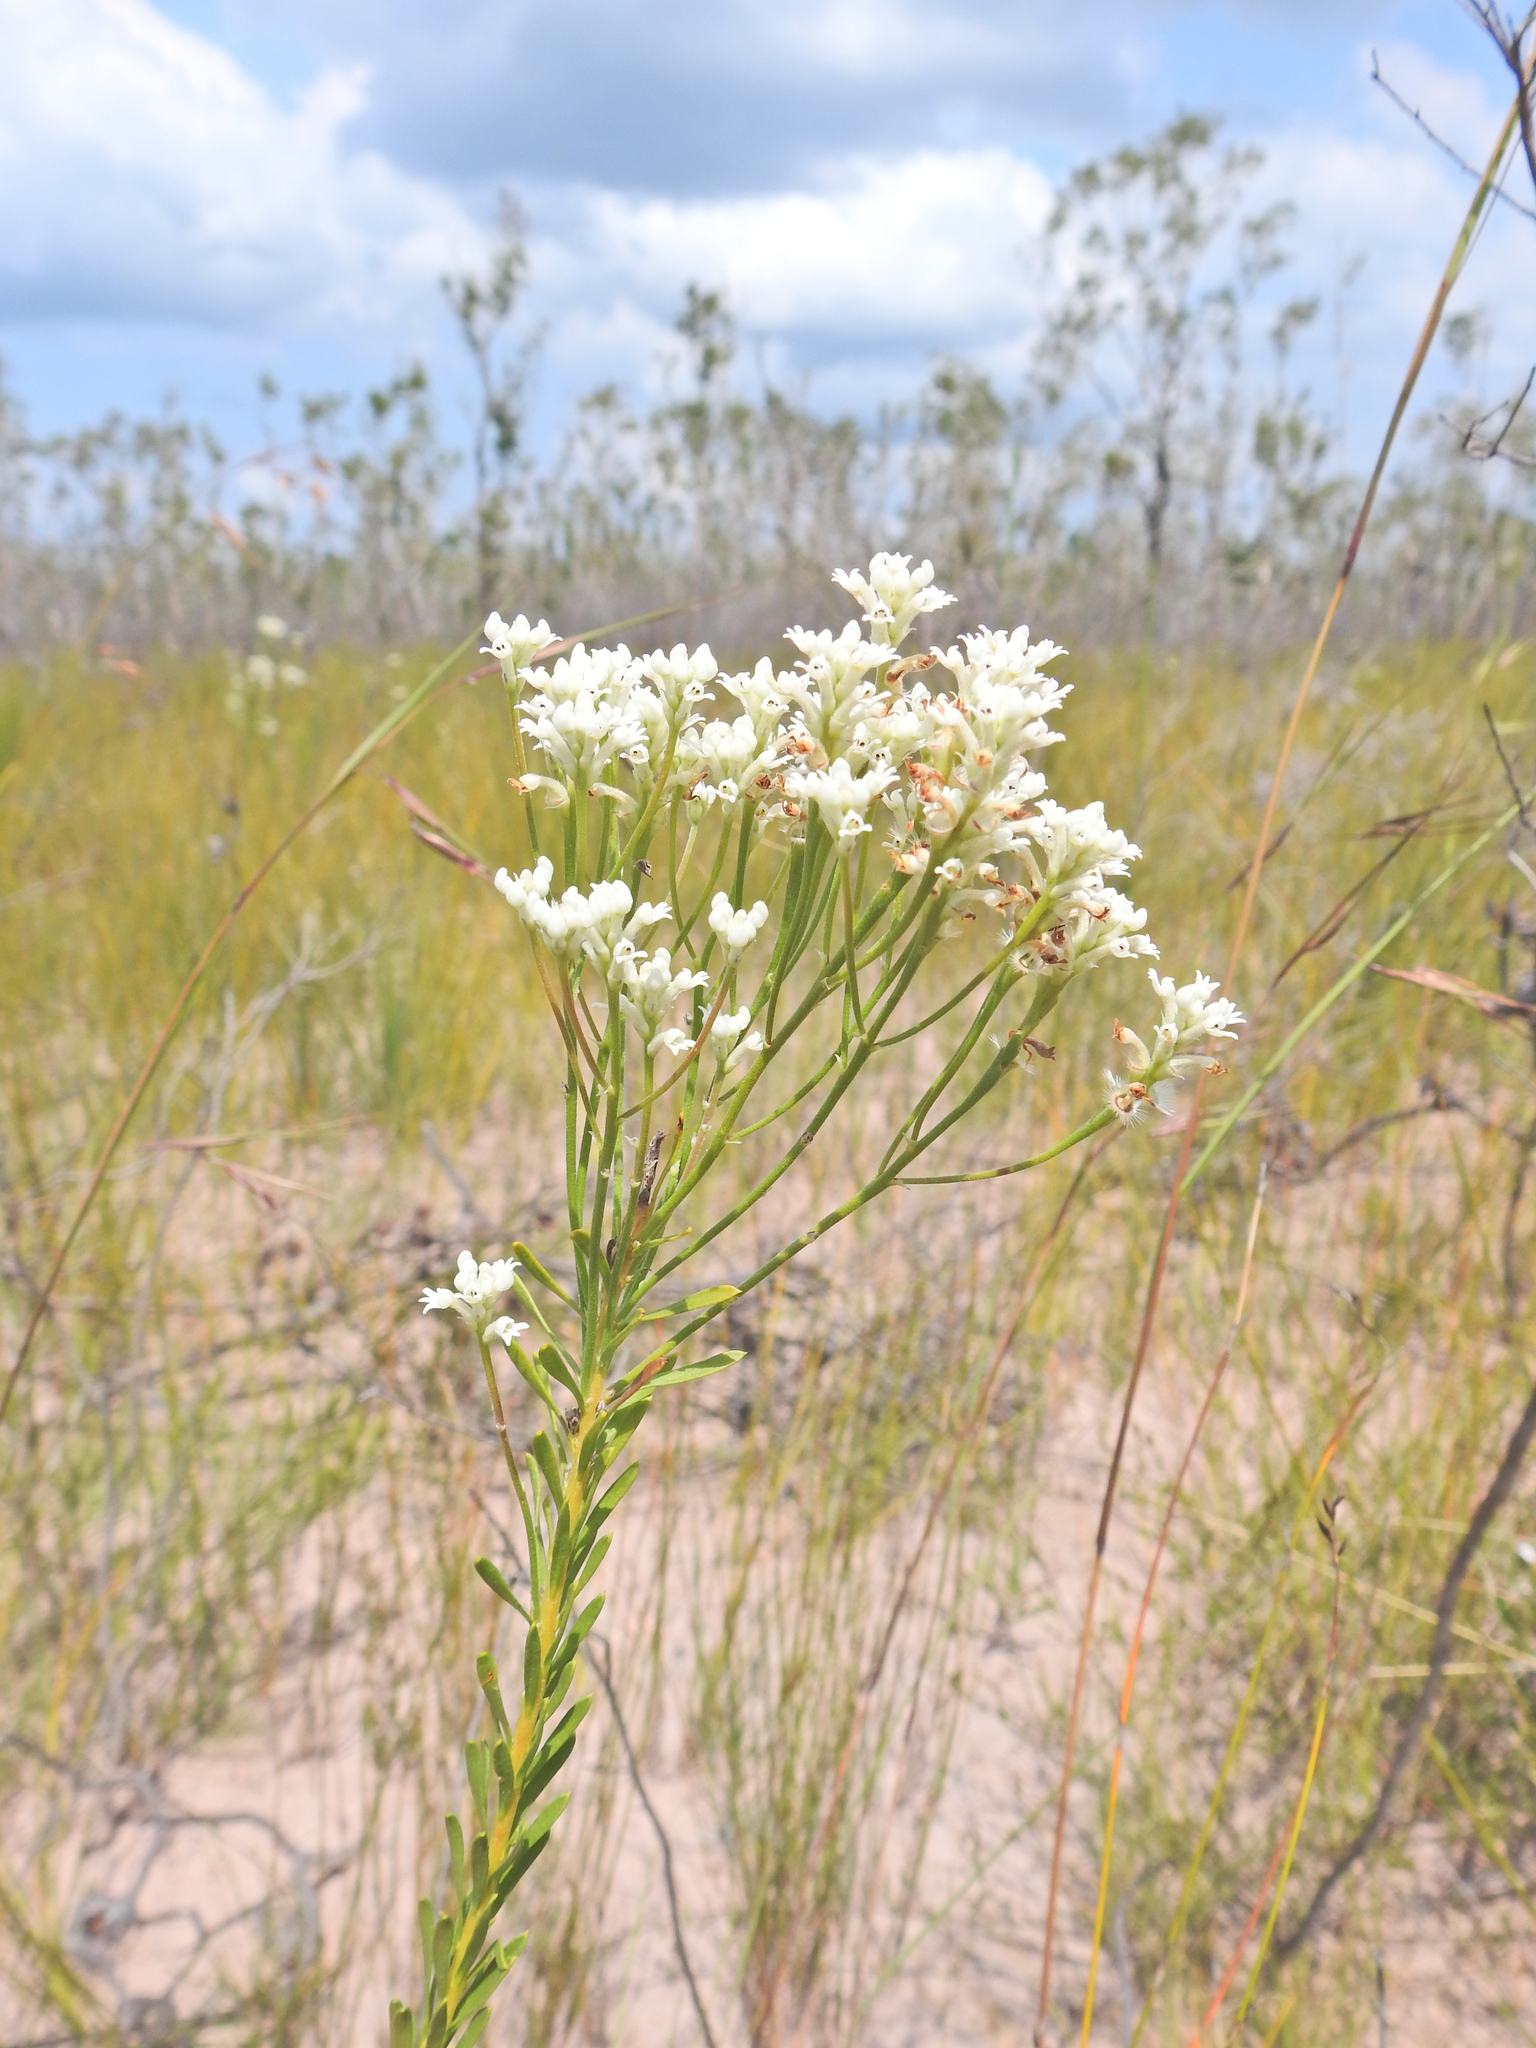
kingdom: Plantae
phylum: Tracheophyta
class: Magnoliopsida
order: Proteales
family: Proteaceae
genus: Conospermum
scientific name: Conospermum taxifolium
